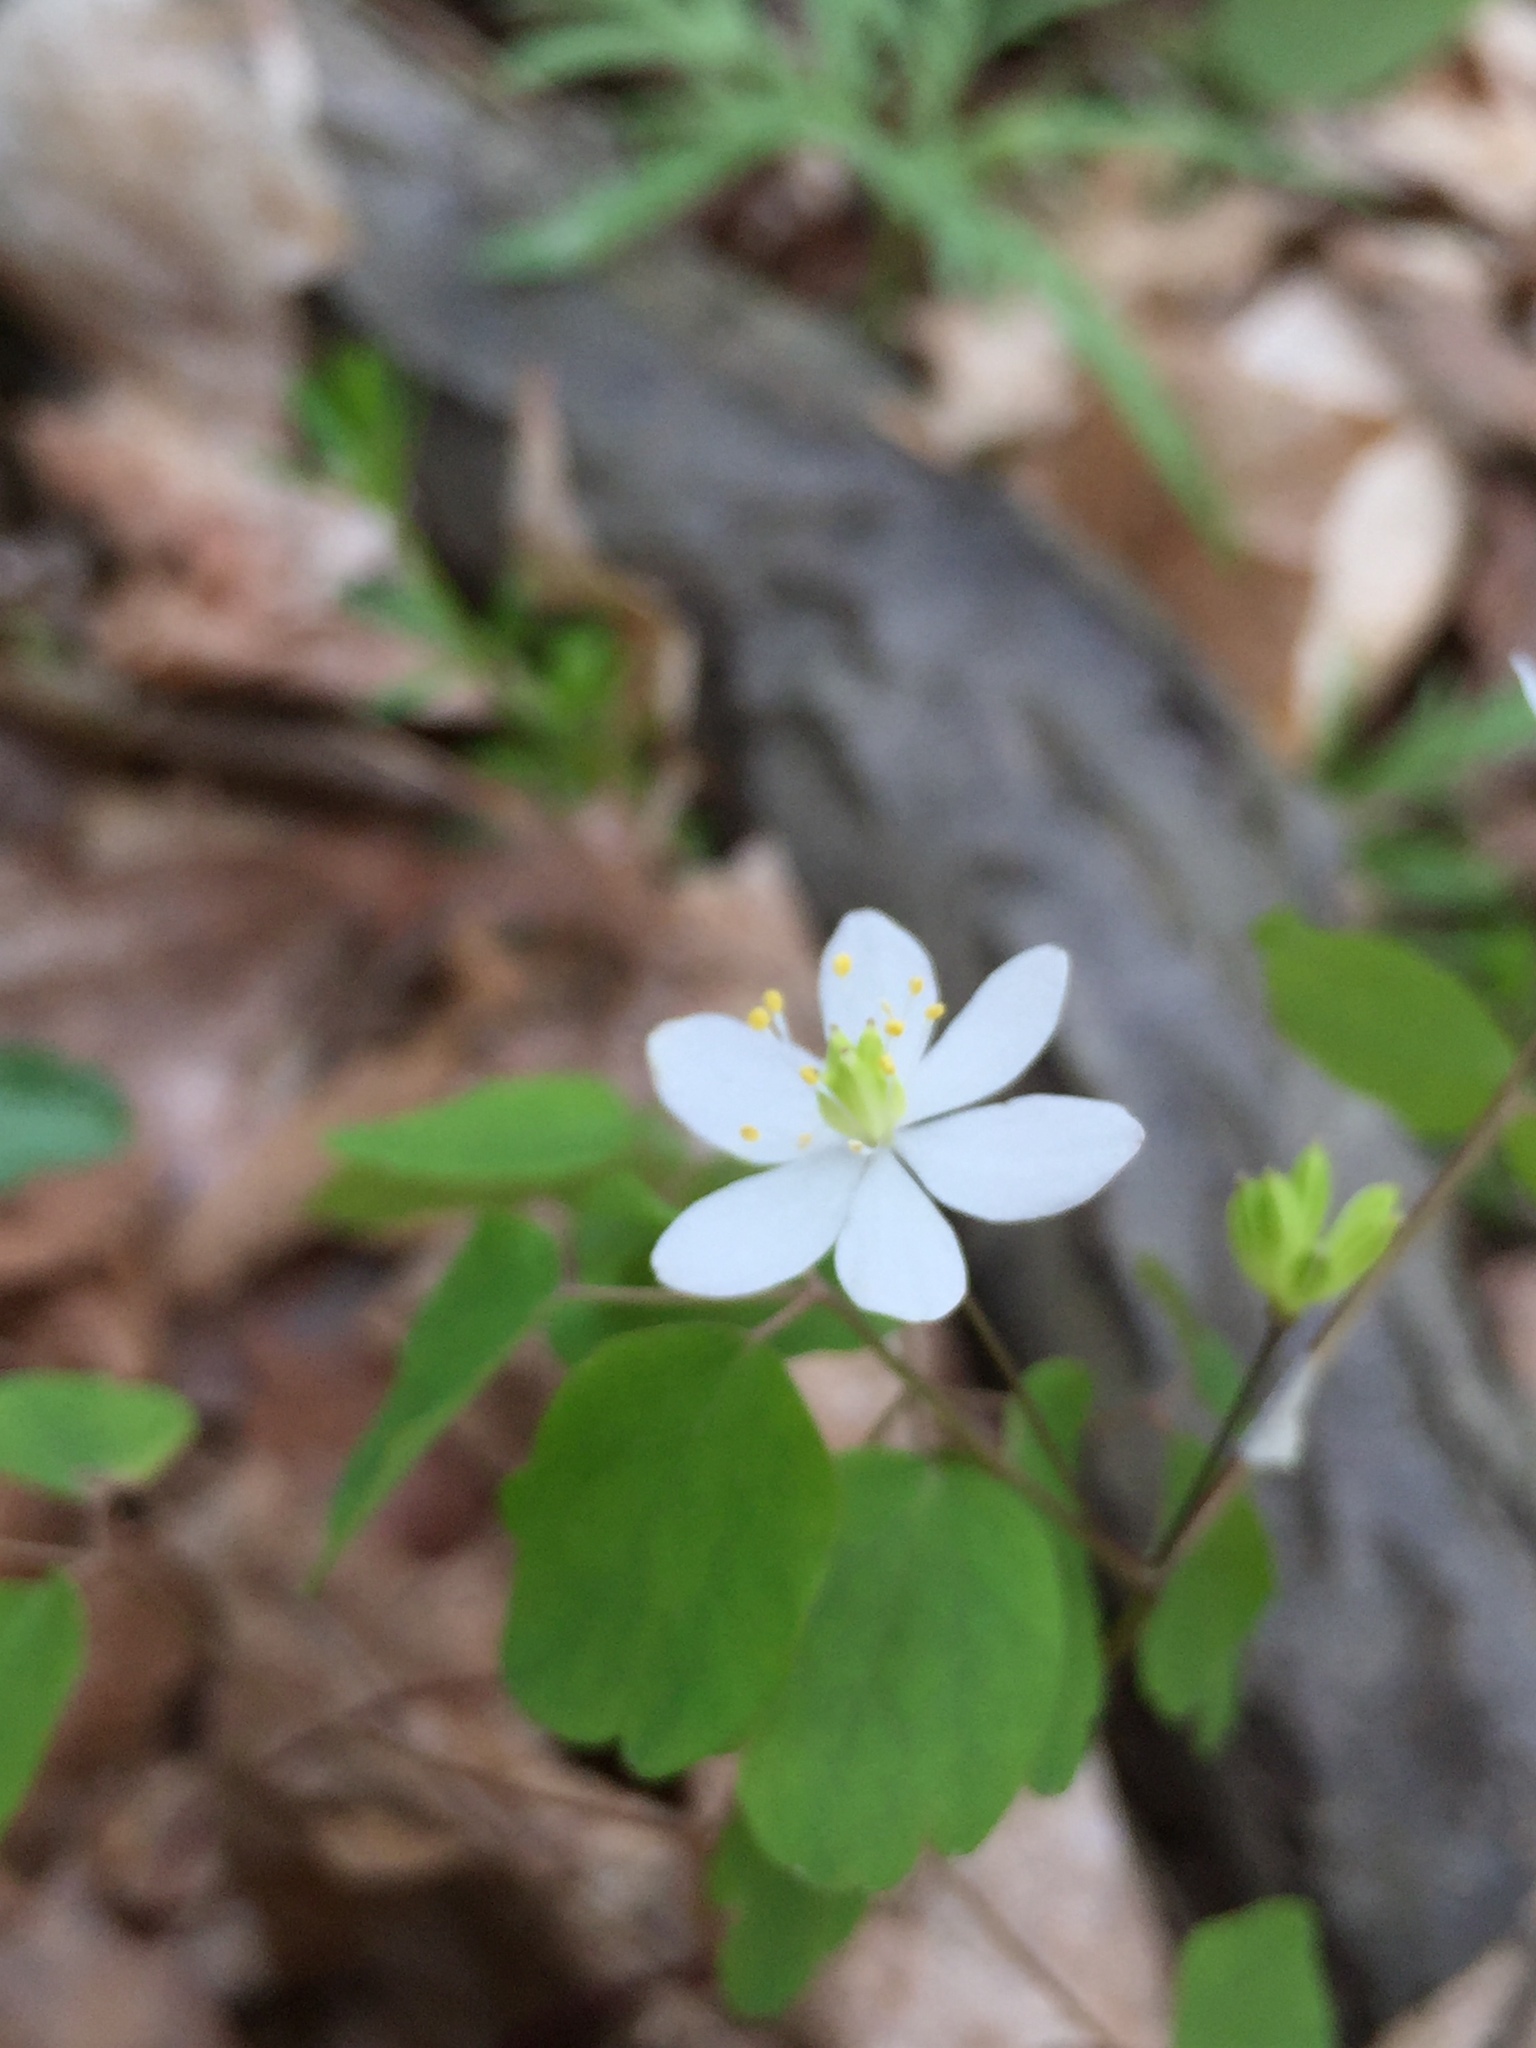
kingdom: Plantae
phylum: Tracheophyta
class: Magnoliopsida
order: Ranunculales
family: Ranunculaceae
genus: Thalictrum
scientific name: Thalictrum thalictroides
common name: Rue-anemone
